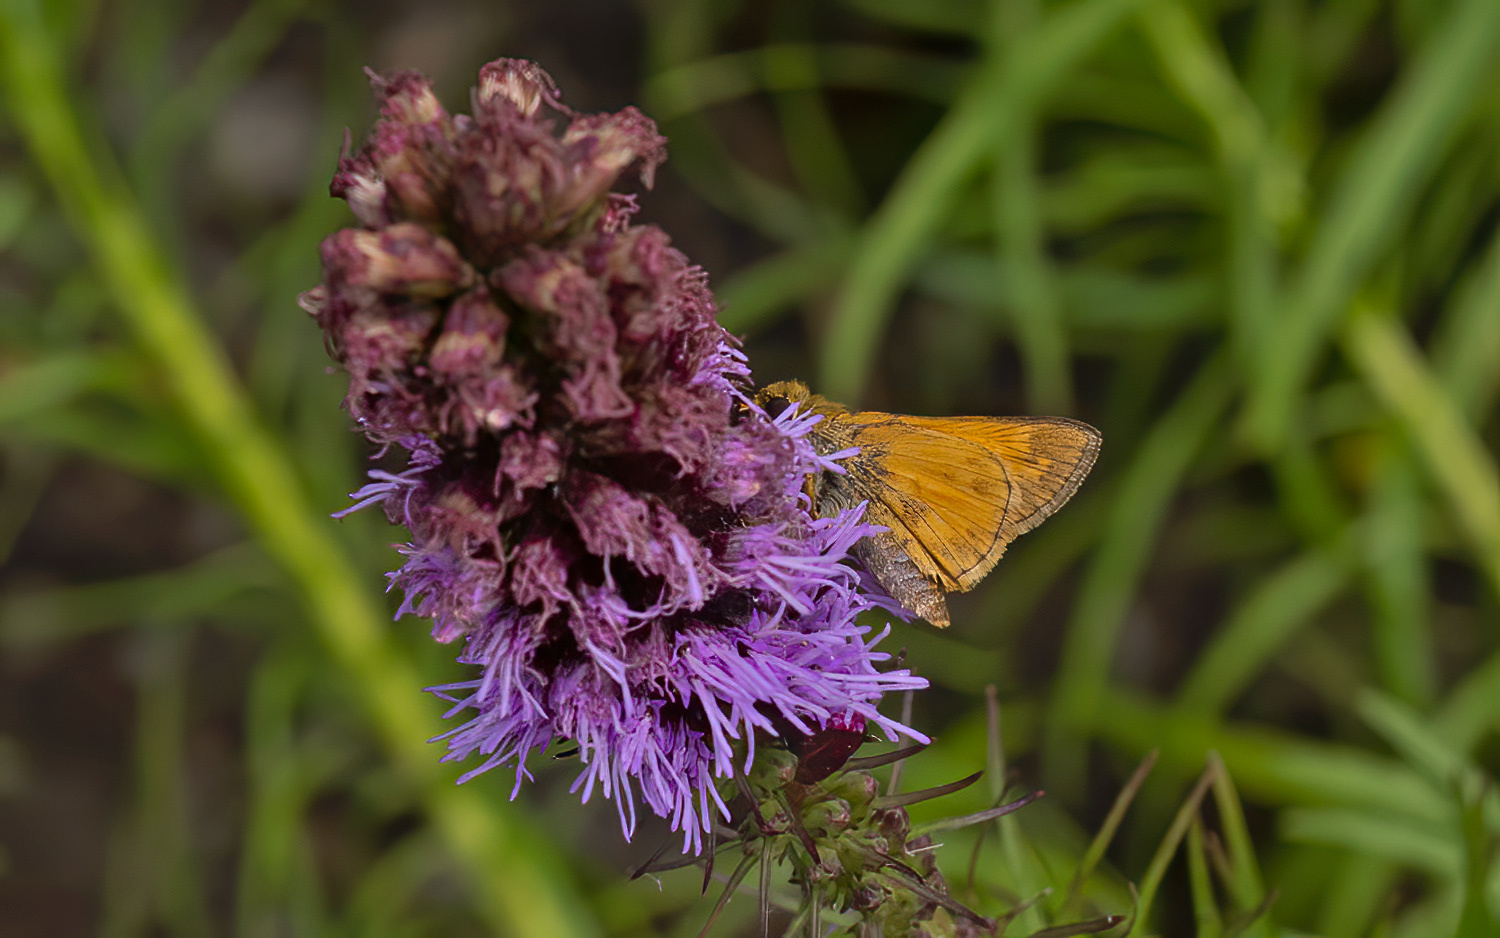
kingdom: Animalia
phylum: Arthropoda
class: Insecta
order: Lepidoptera
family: Hesperiidae
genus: Atalopedes
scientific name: Atalopedes
